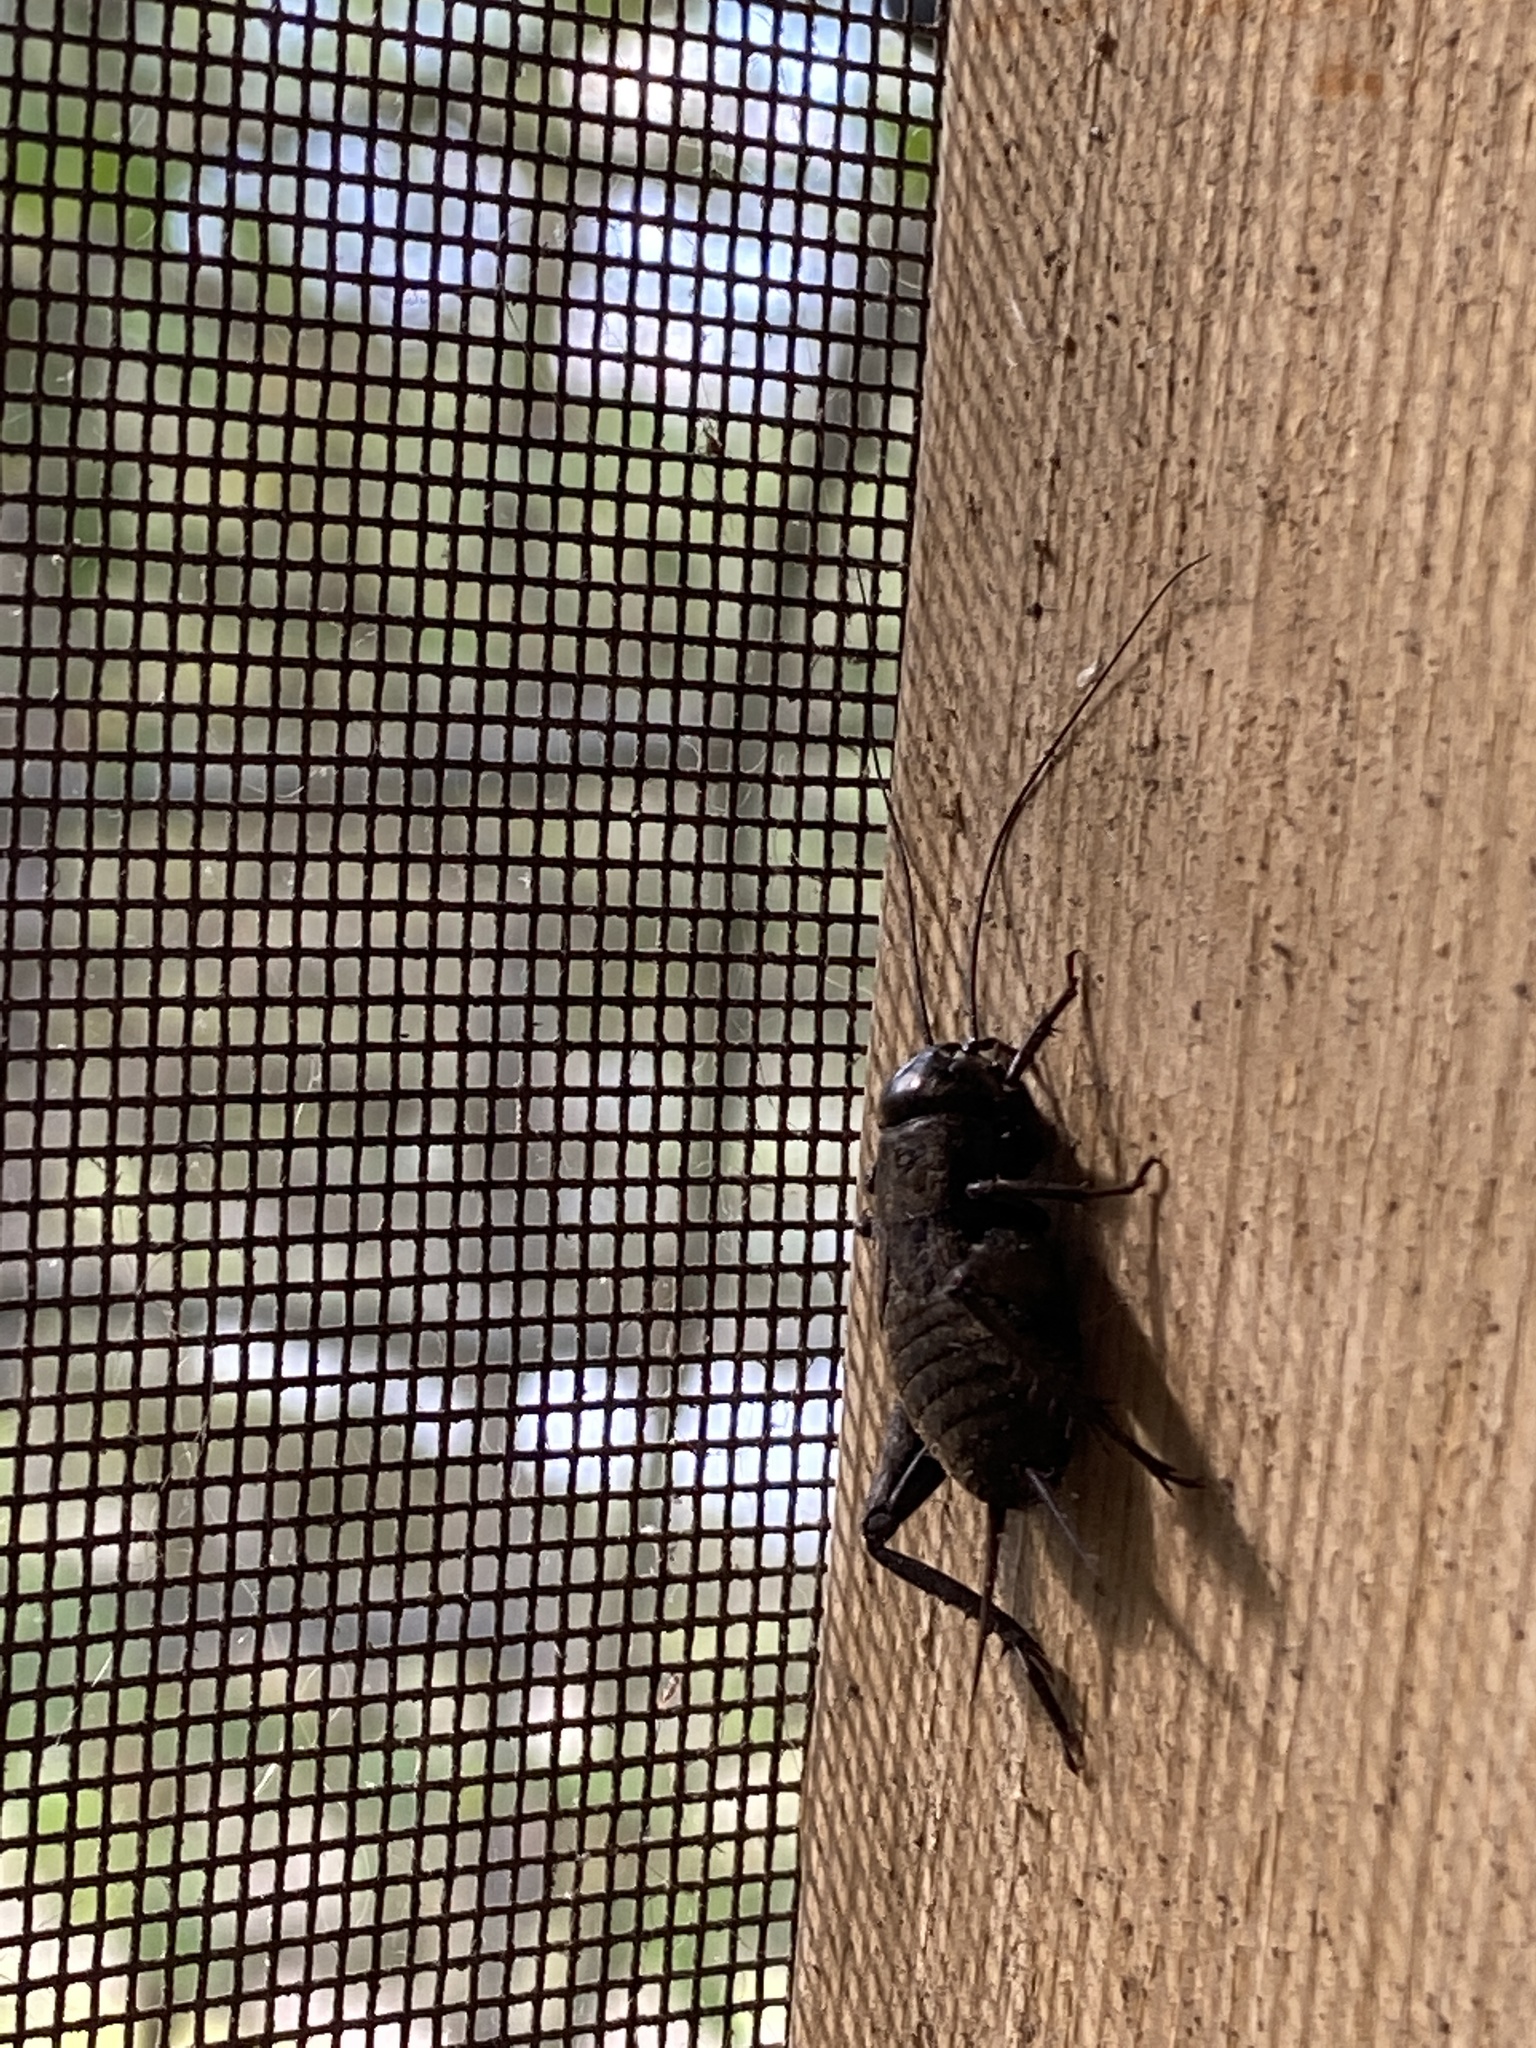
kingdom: Animalia
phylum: Arthropoda
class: Insecta
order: Orthoptera
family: Gryllidae
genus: Gryllus
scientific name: Gryllus pennsylvanicus
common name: Fall field cricket
